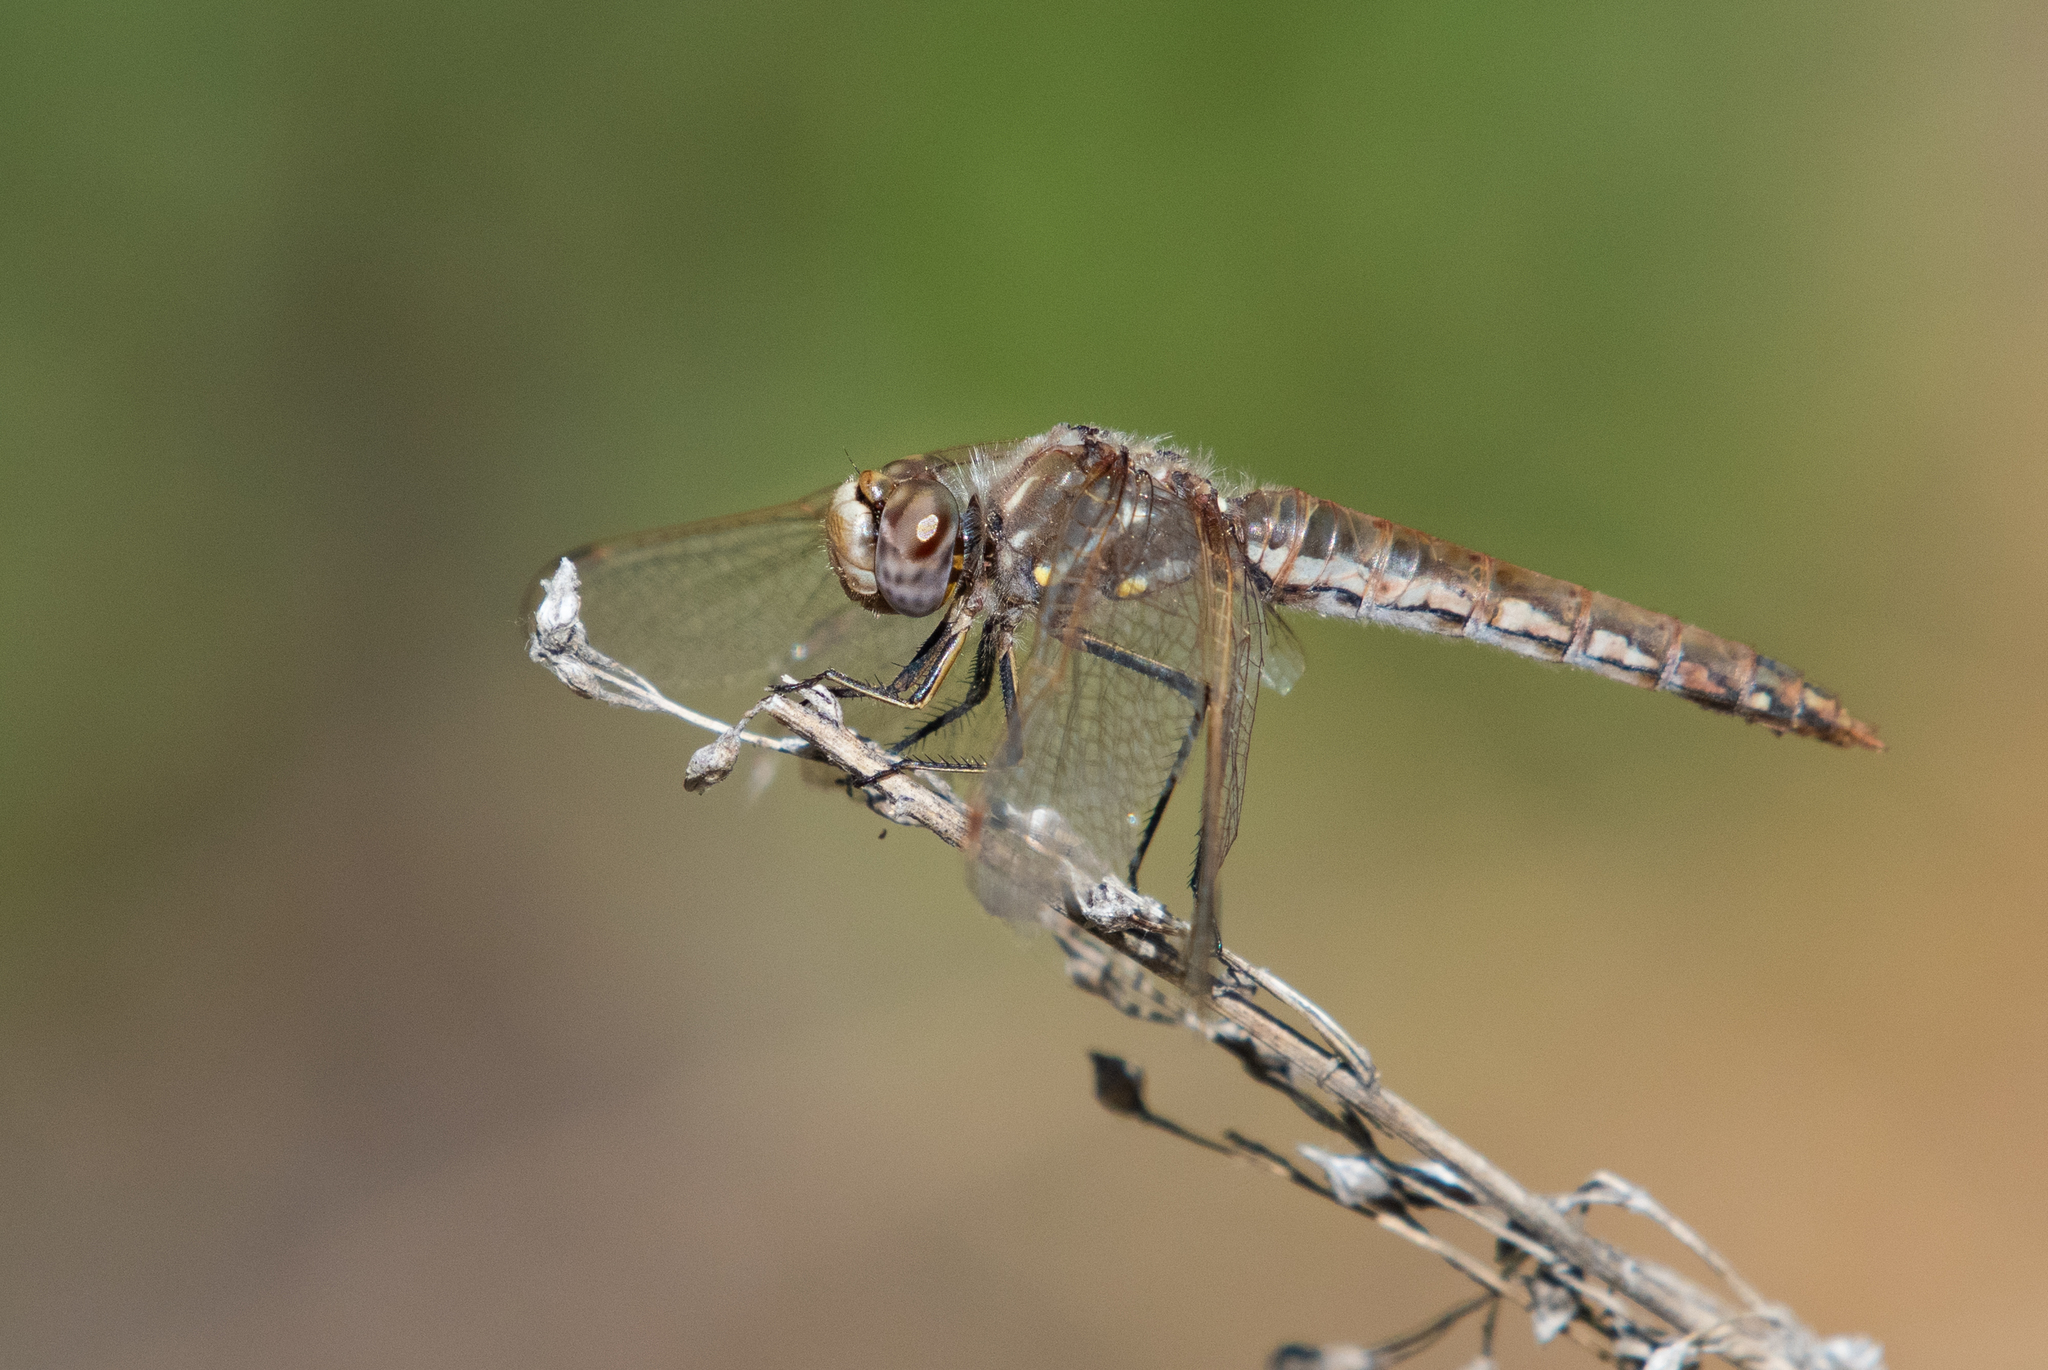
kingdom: Animalia
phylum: Arthropoda
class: Insecta
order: Odonata
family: Libellulidae
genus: Sympetrum
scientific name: Sympetrum corruptum
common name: Variegated meadowhawk
